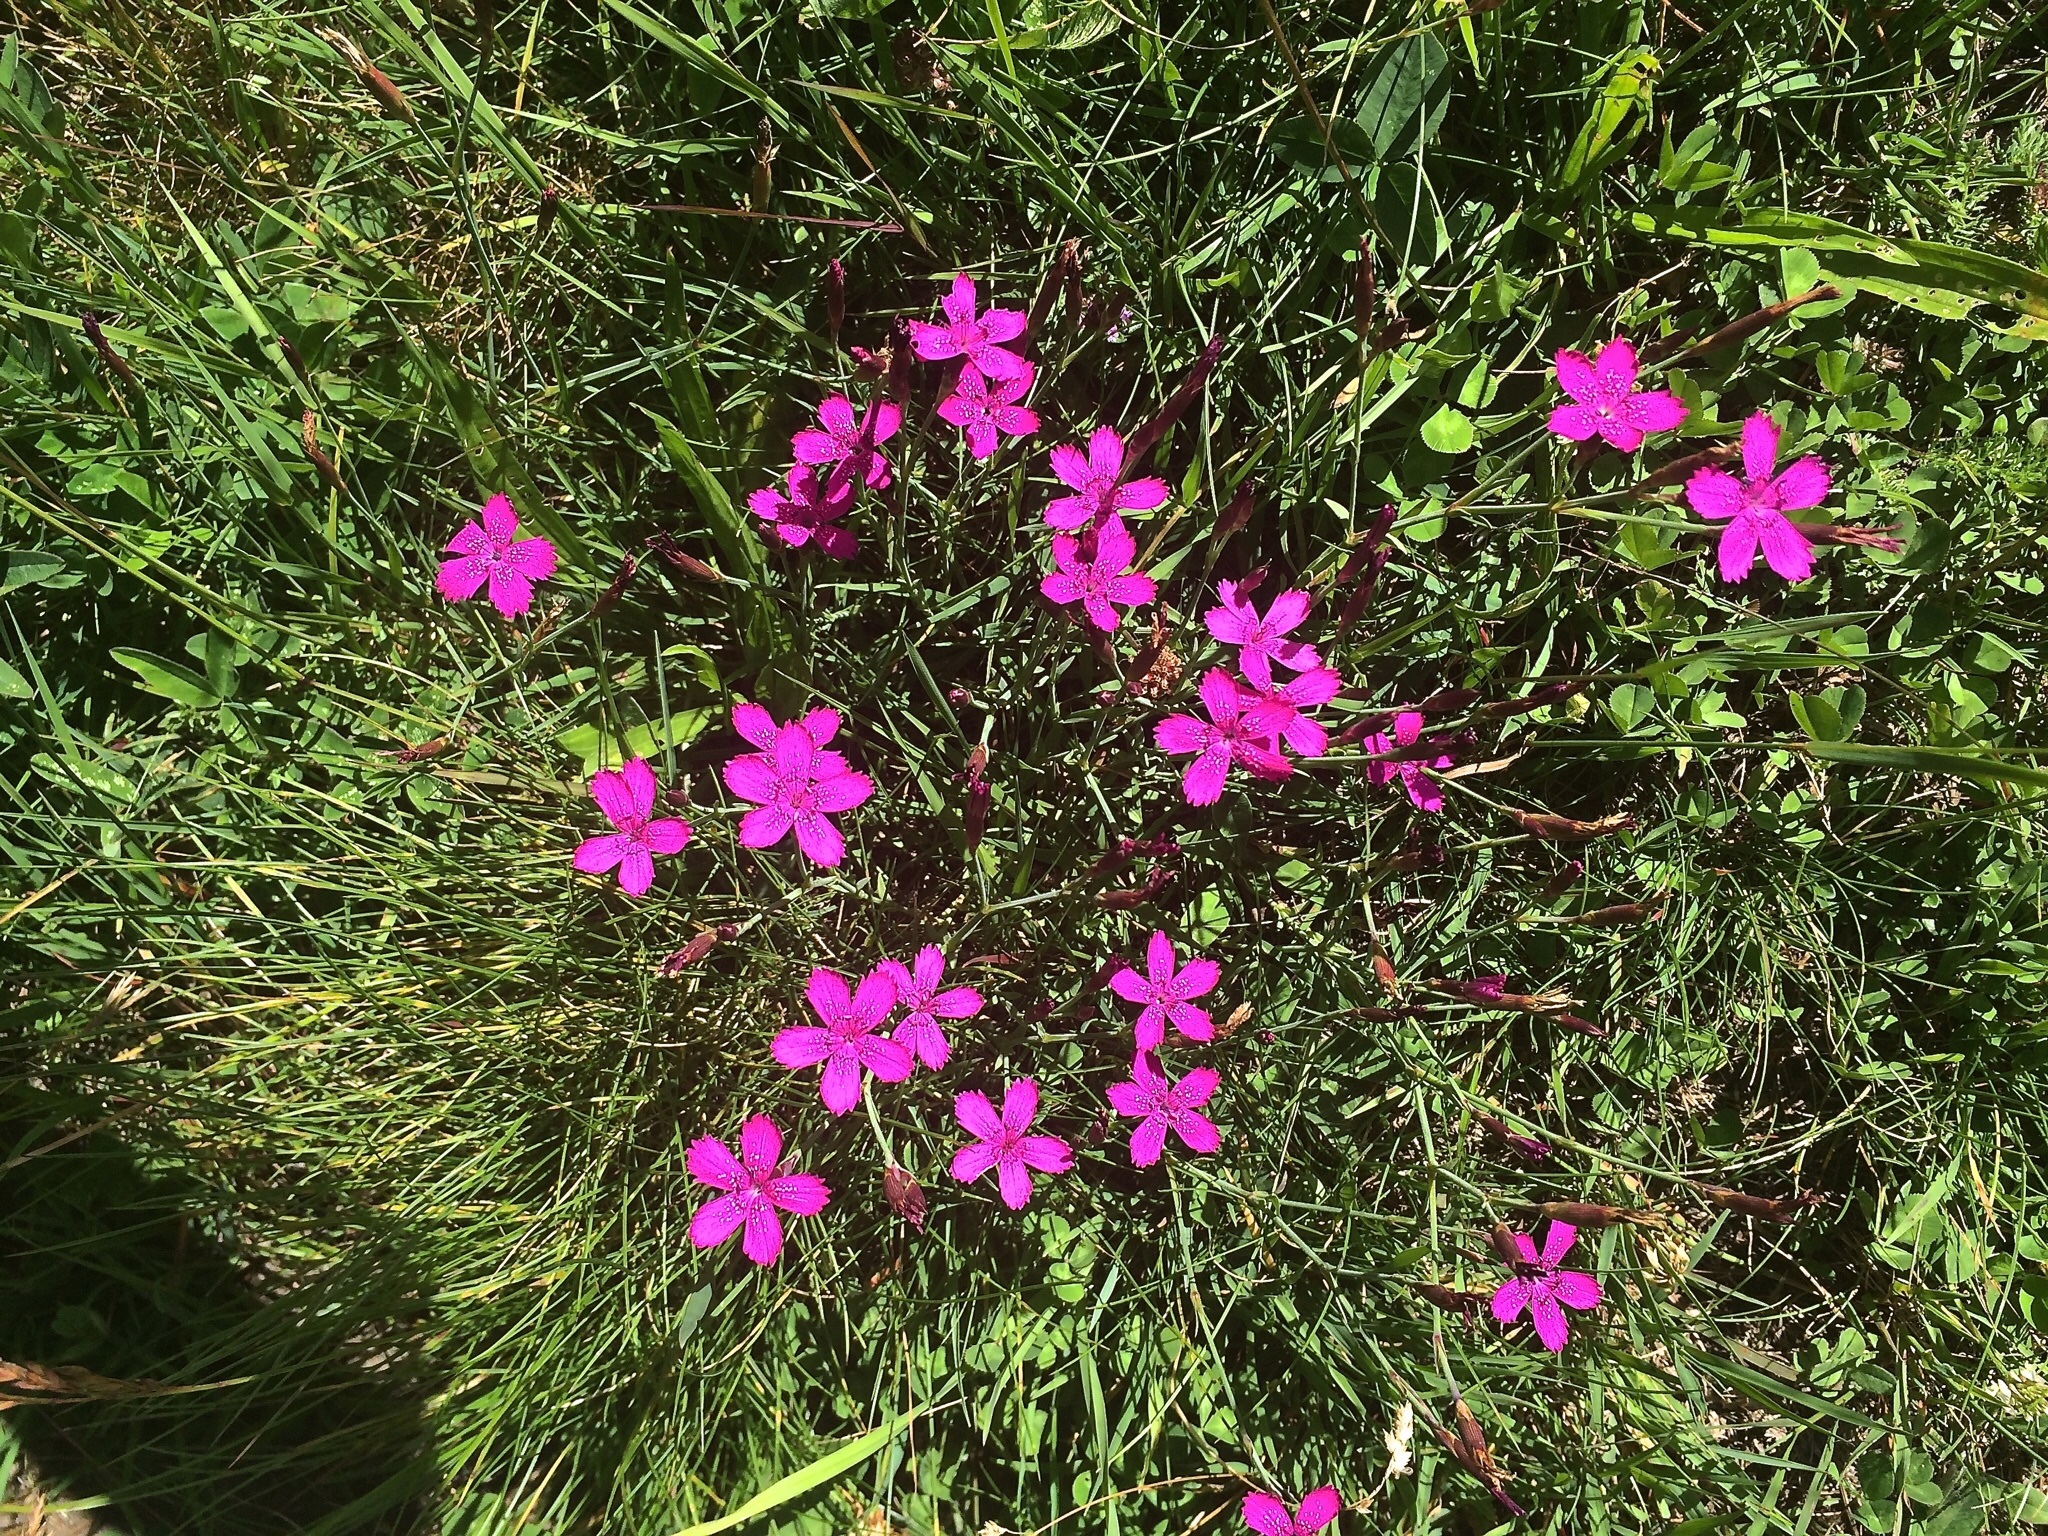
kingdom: Plantae
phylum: Tracheophyta
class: Magnoliopsida
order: Caryophyllales
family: Caryophyllaceae
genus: Dianthus
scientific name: Dianthus deltoides
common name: Maiden pink
